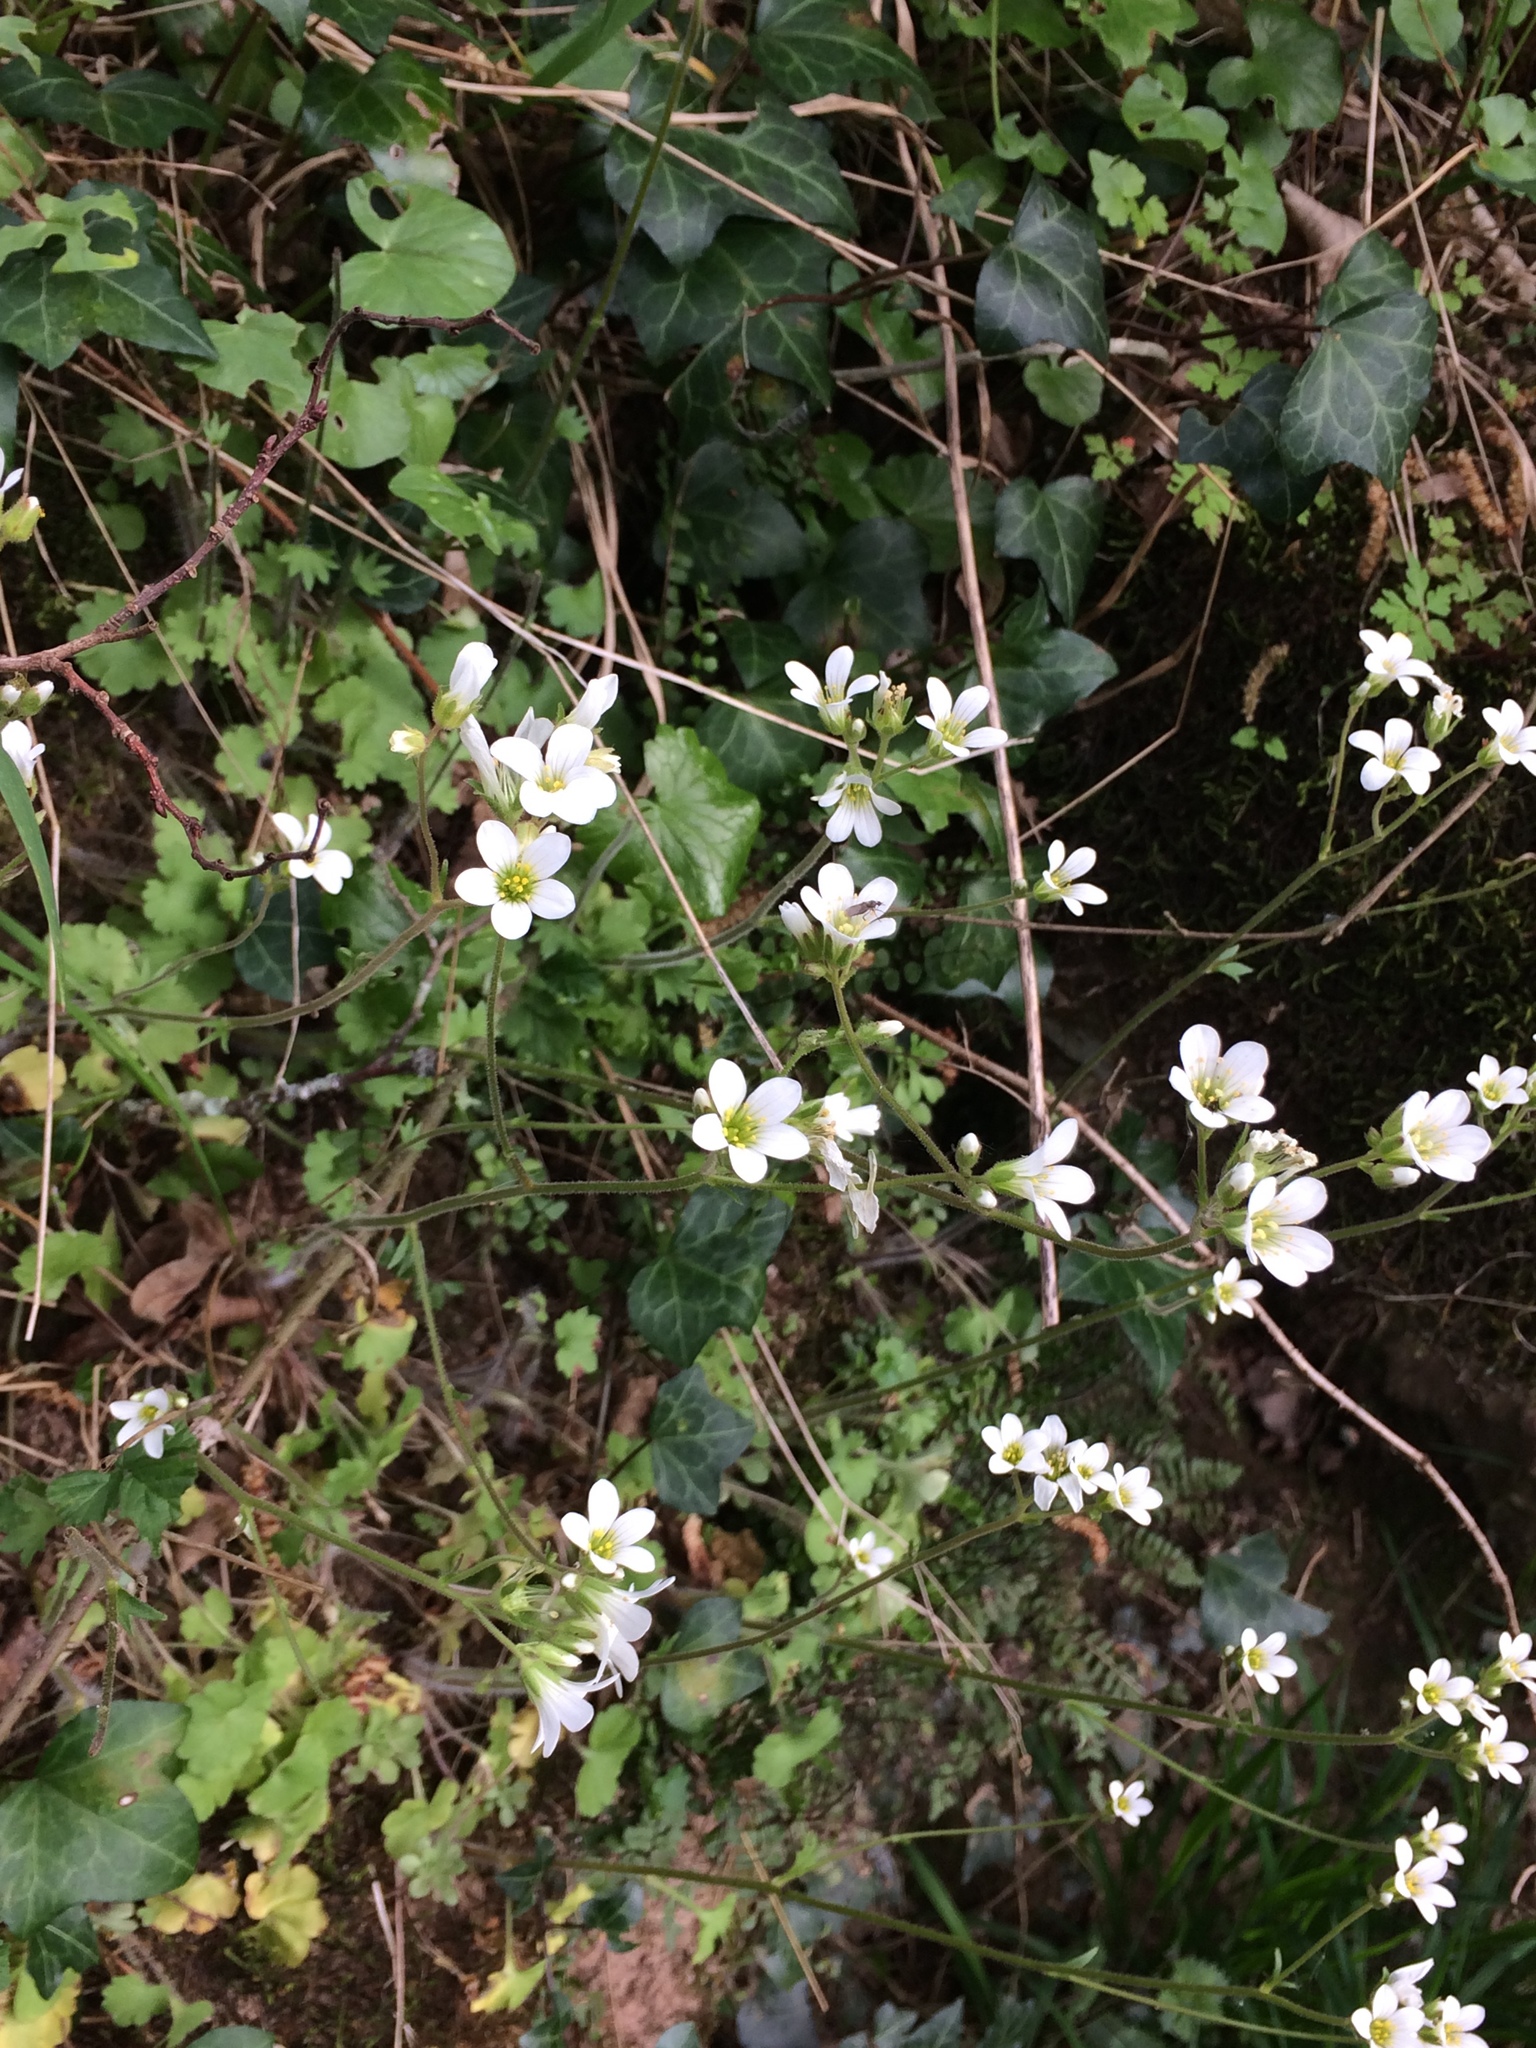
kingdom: Plantae
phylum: Tracheophyta
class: Magnoliopsida
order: Saxifragales
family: Saxifragaceae
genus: Saxifraga
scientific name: Saxifraga granulata
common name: Meadow saxifrage
